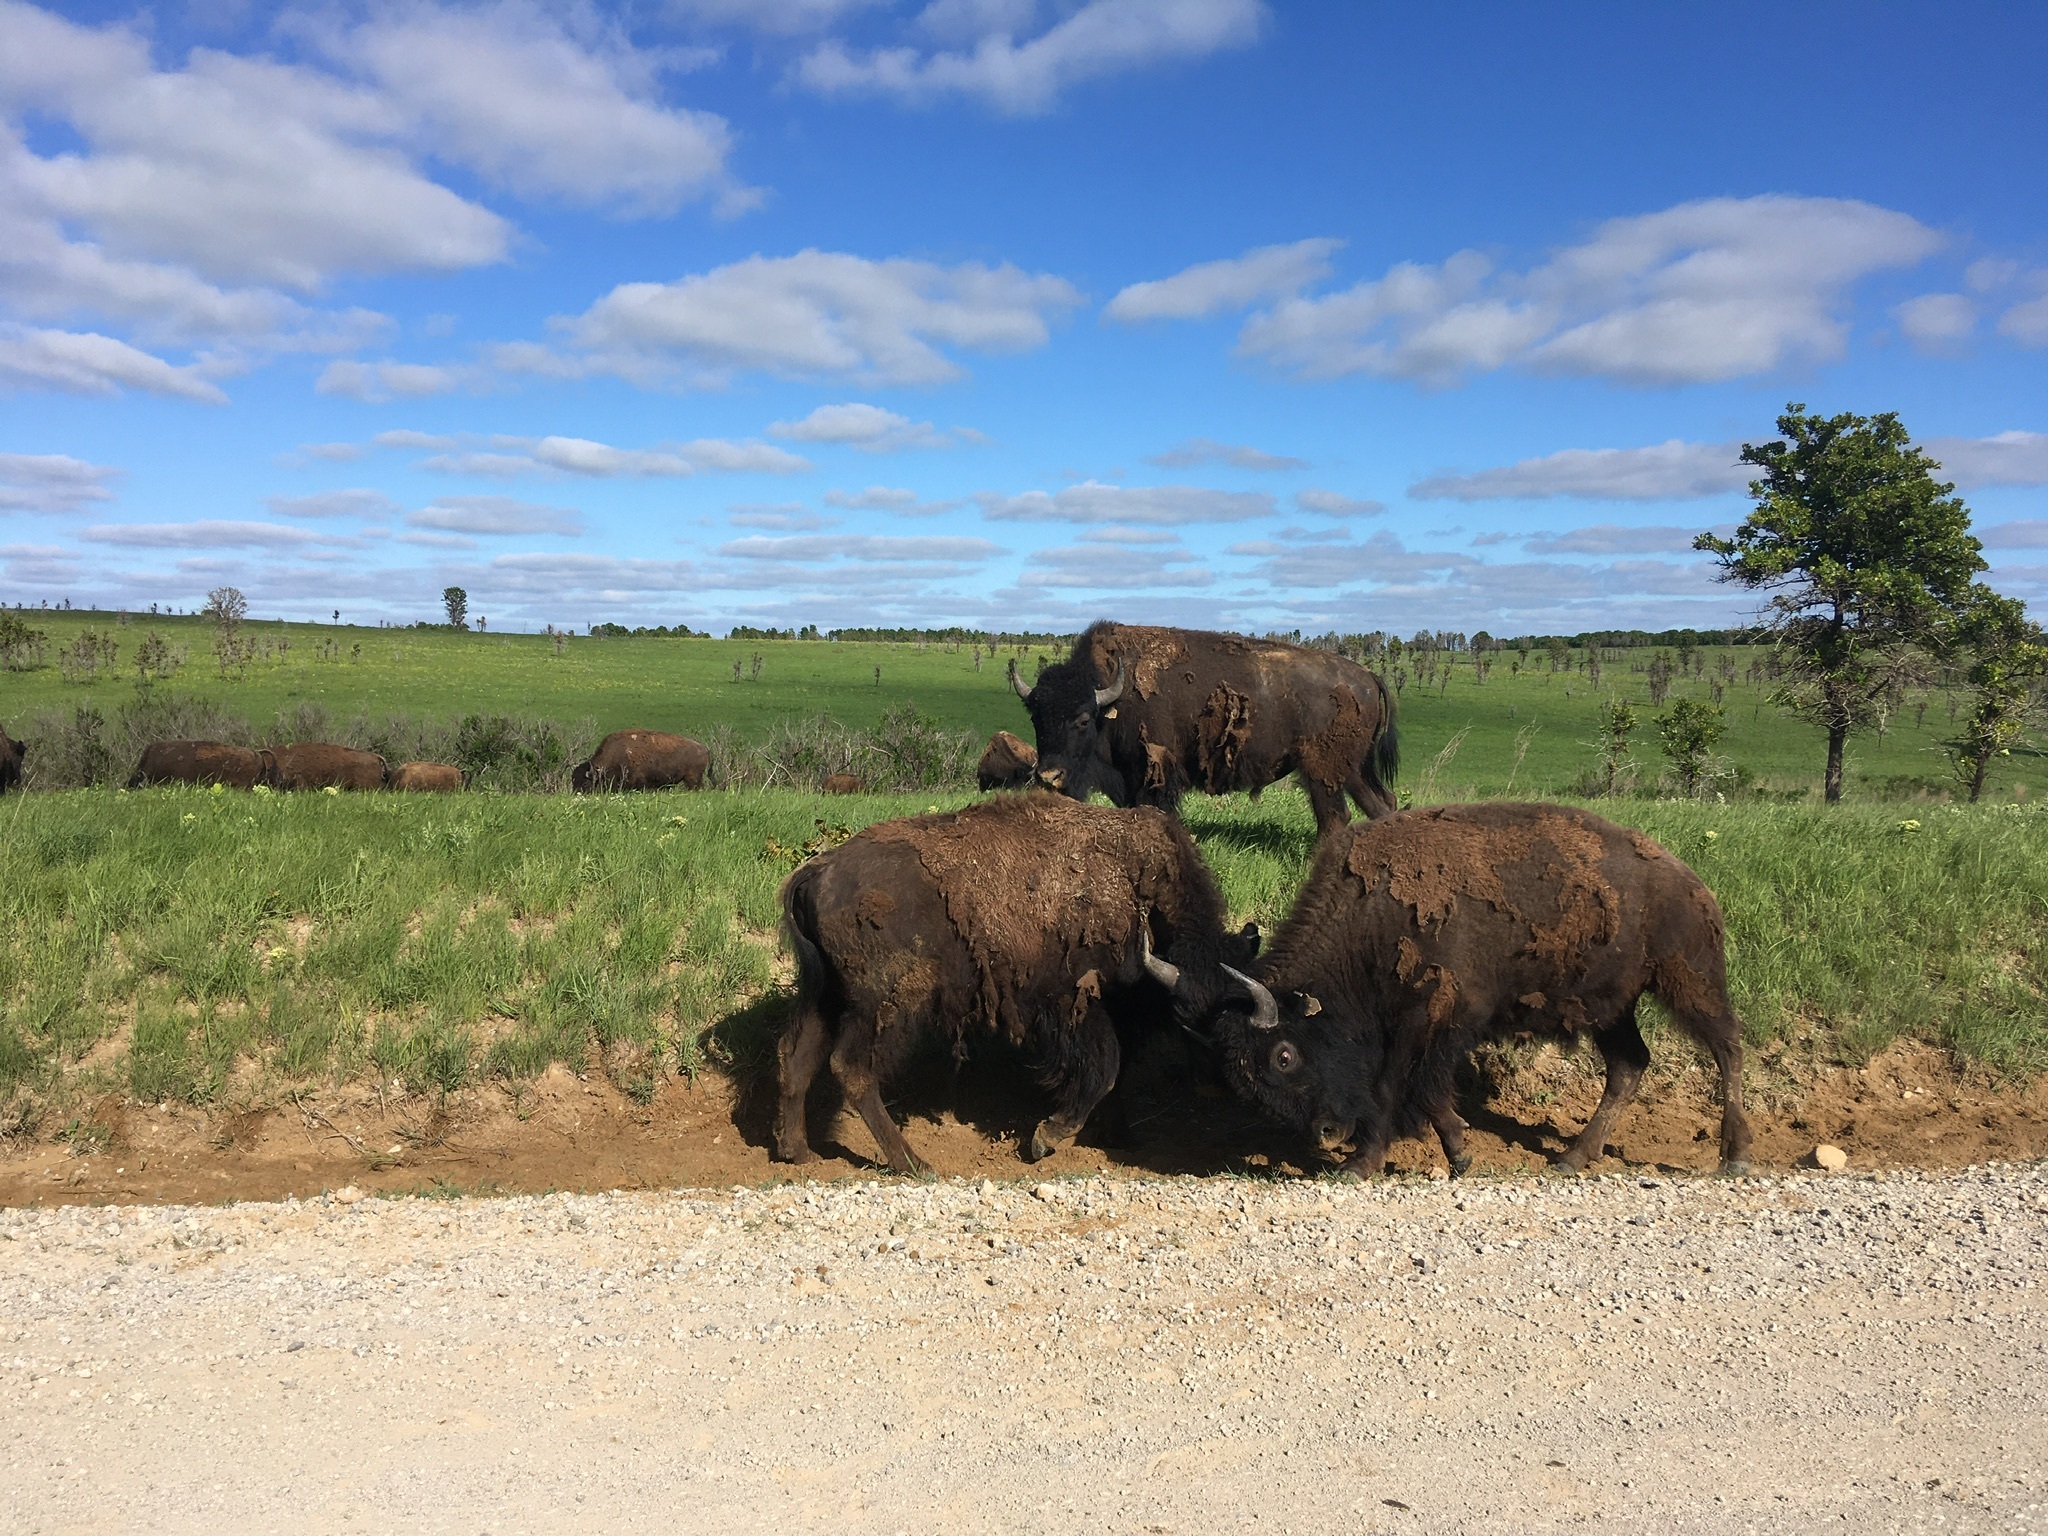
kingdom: Animalia
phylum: Chordata
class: Mammalia
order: Artiodactyla
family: Bovidae
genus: Bison
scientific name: Bison bison
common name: American bison
